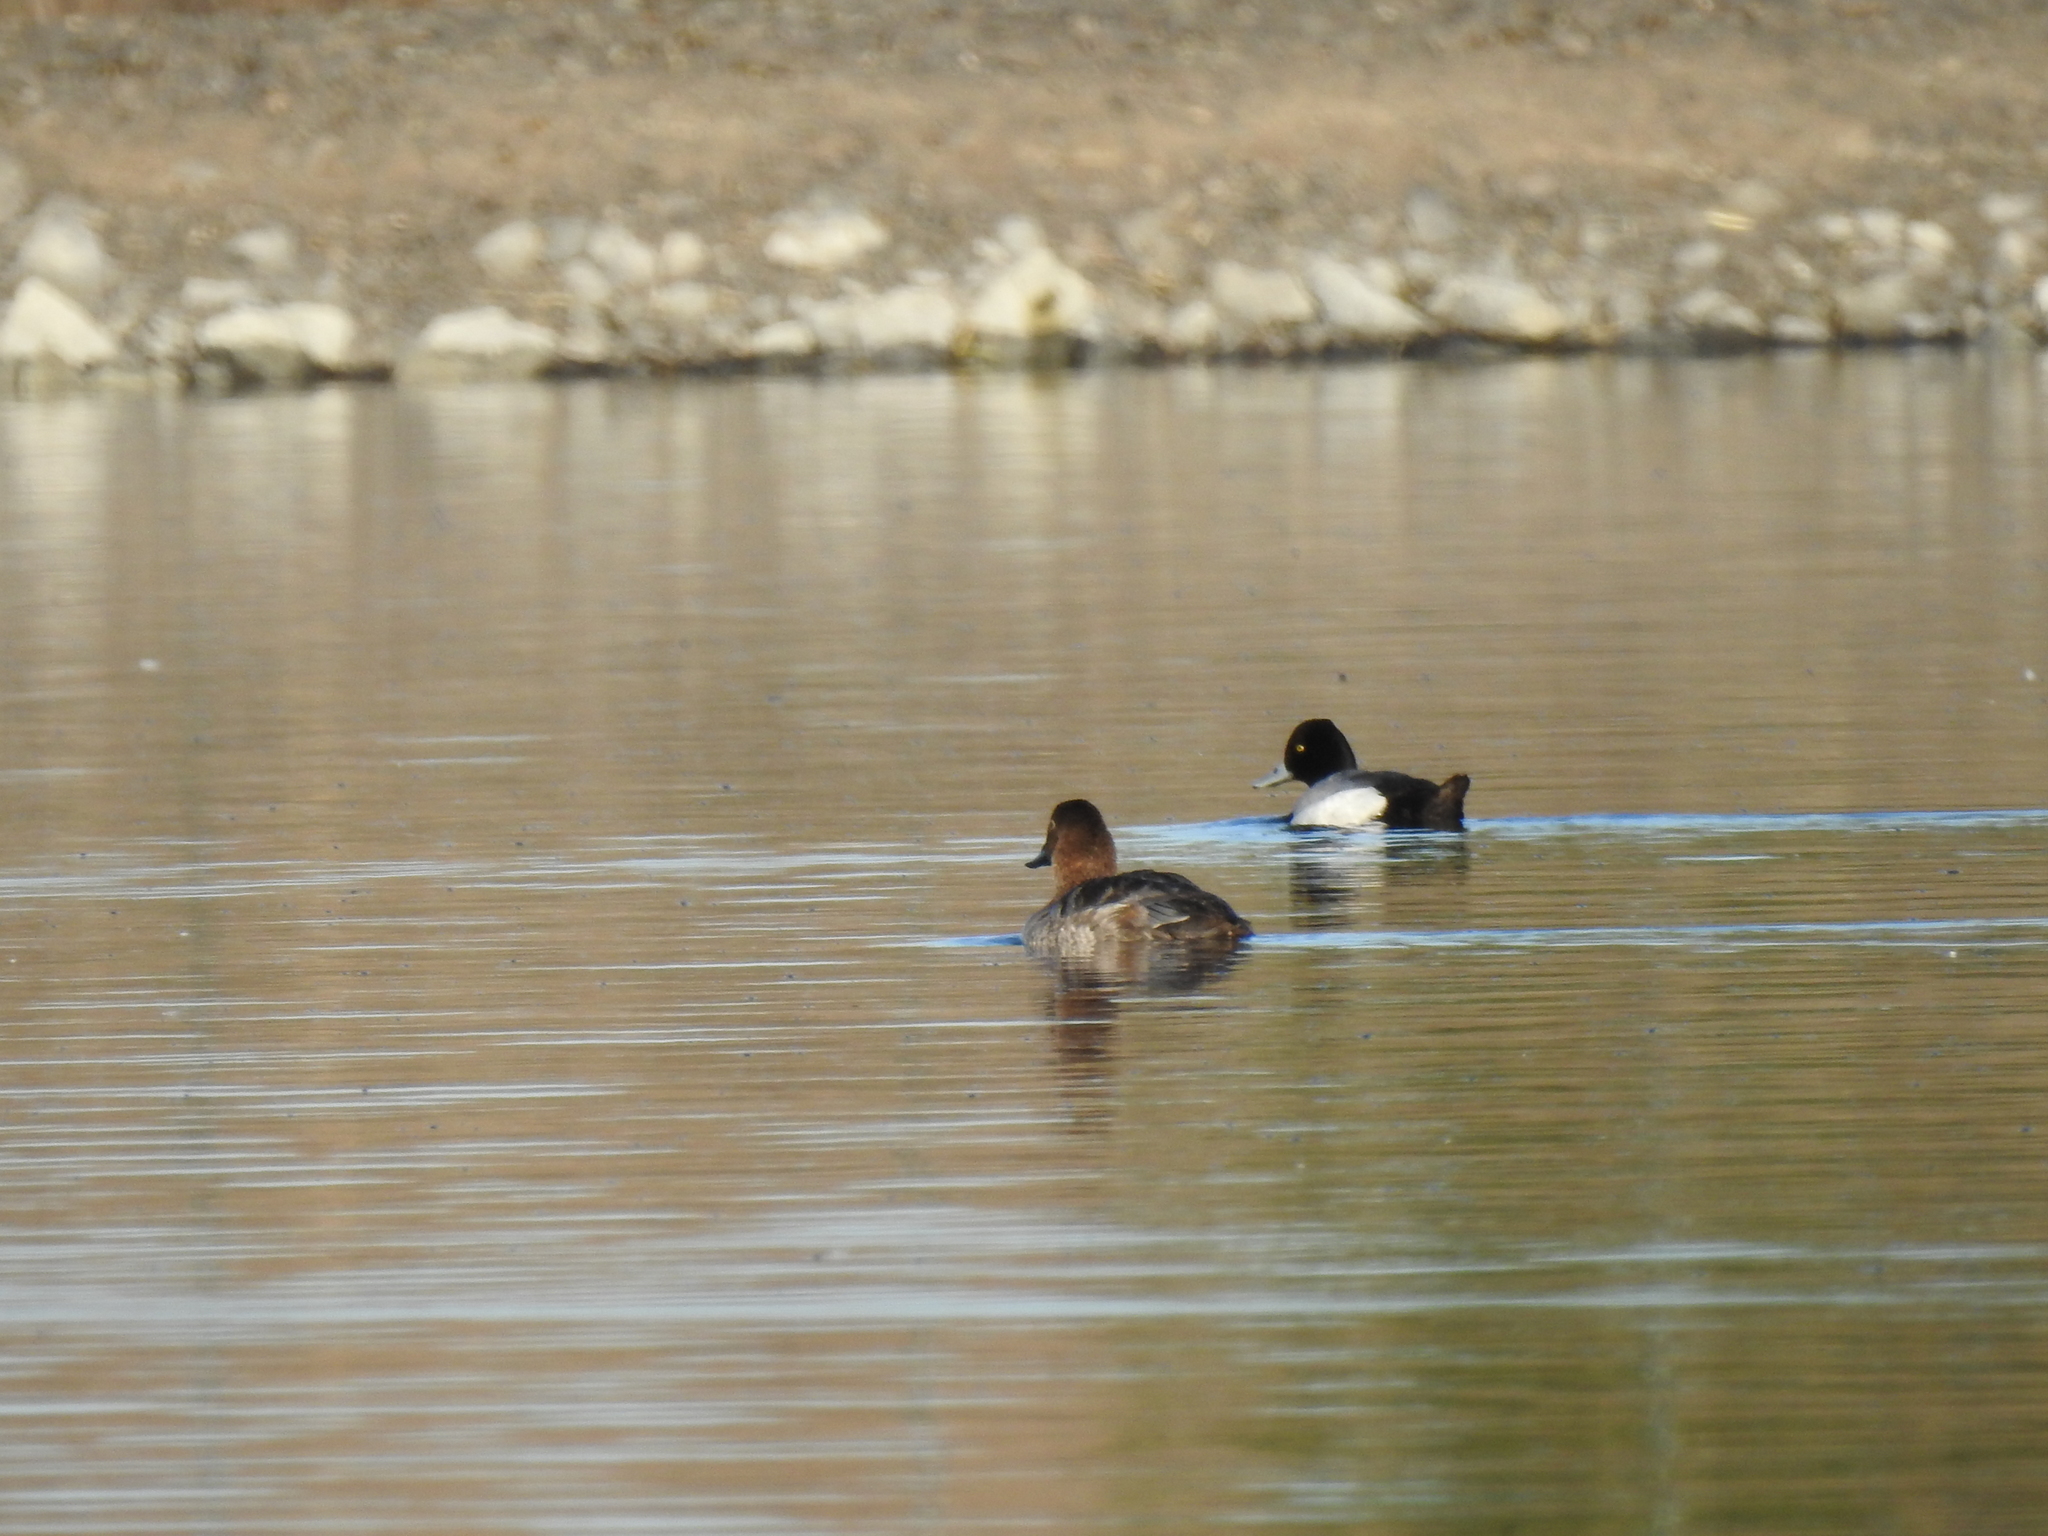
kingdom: Animalia
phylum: Chordata
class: Aves
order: Anseriformes
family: Anatidae
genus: Aythya
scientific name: Aythya affinis
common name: Lesser scaup
